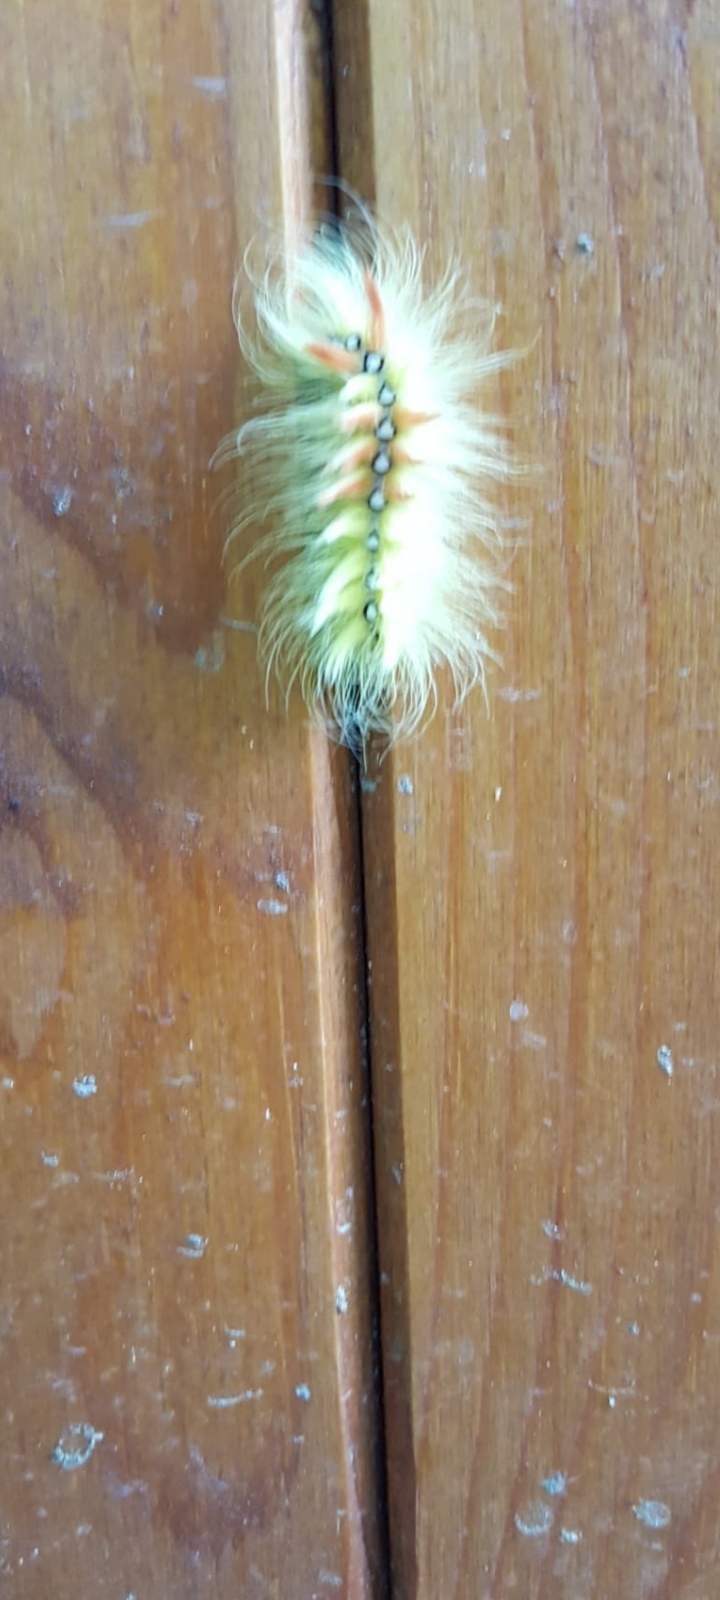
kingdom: Animalia
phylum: Arthropoda
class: Insecta
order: Lepidoptera
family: Noctuidae
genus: Acronicta
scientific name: Acronicta aceris
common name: Sycamore
